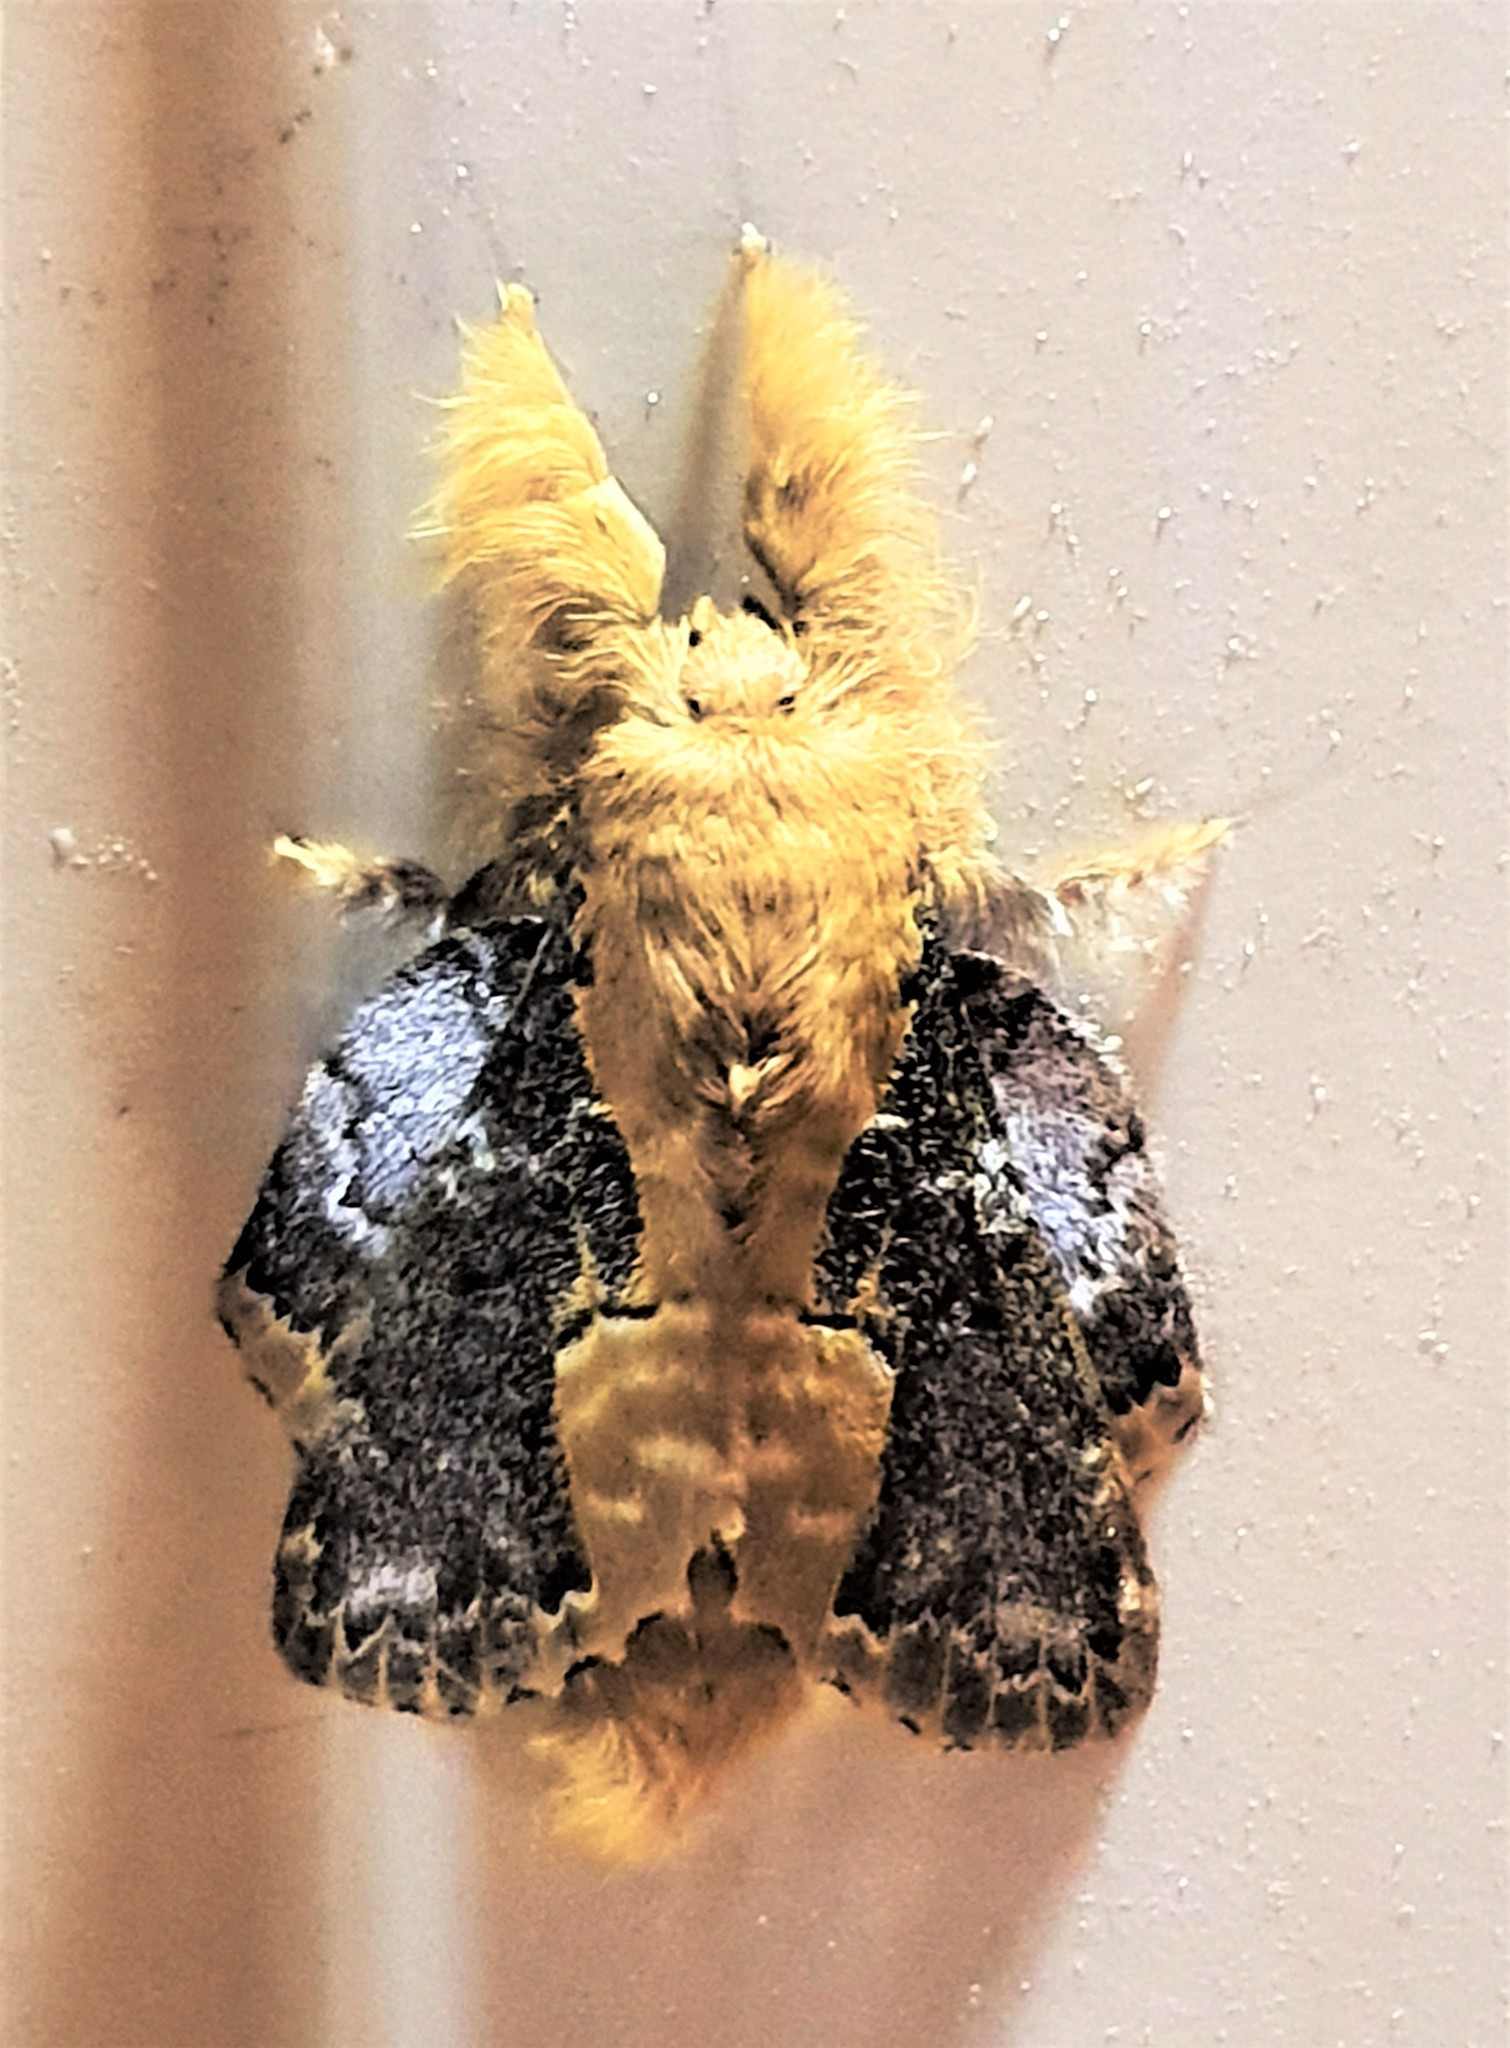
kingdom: Animalia
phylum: Arthropoda
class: Insecta
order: Lepidoptera
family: Lasiocampidae
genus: Euglyphis
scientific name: Euglyphis claudia
